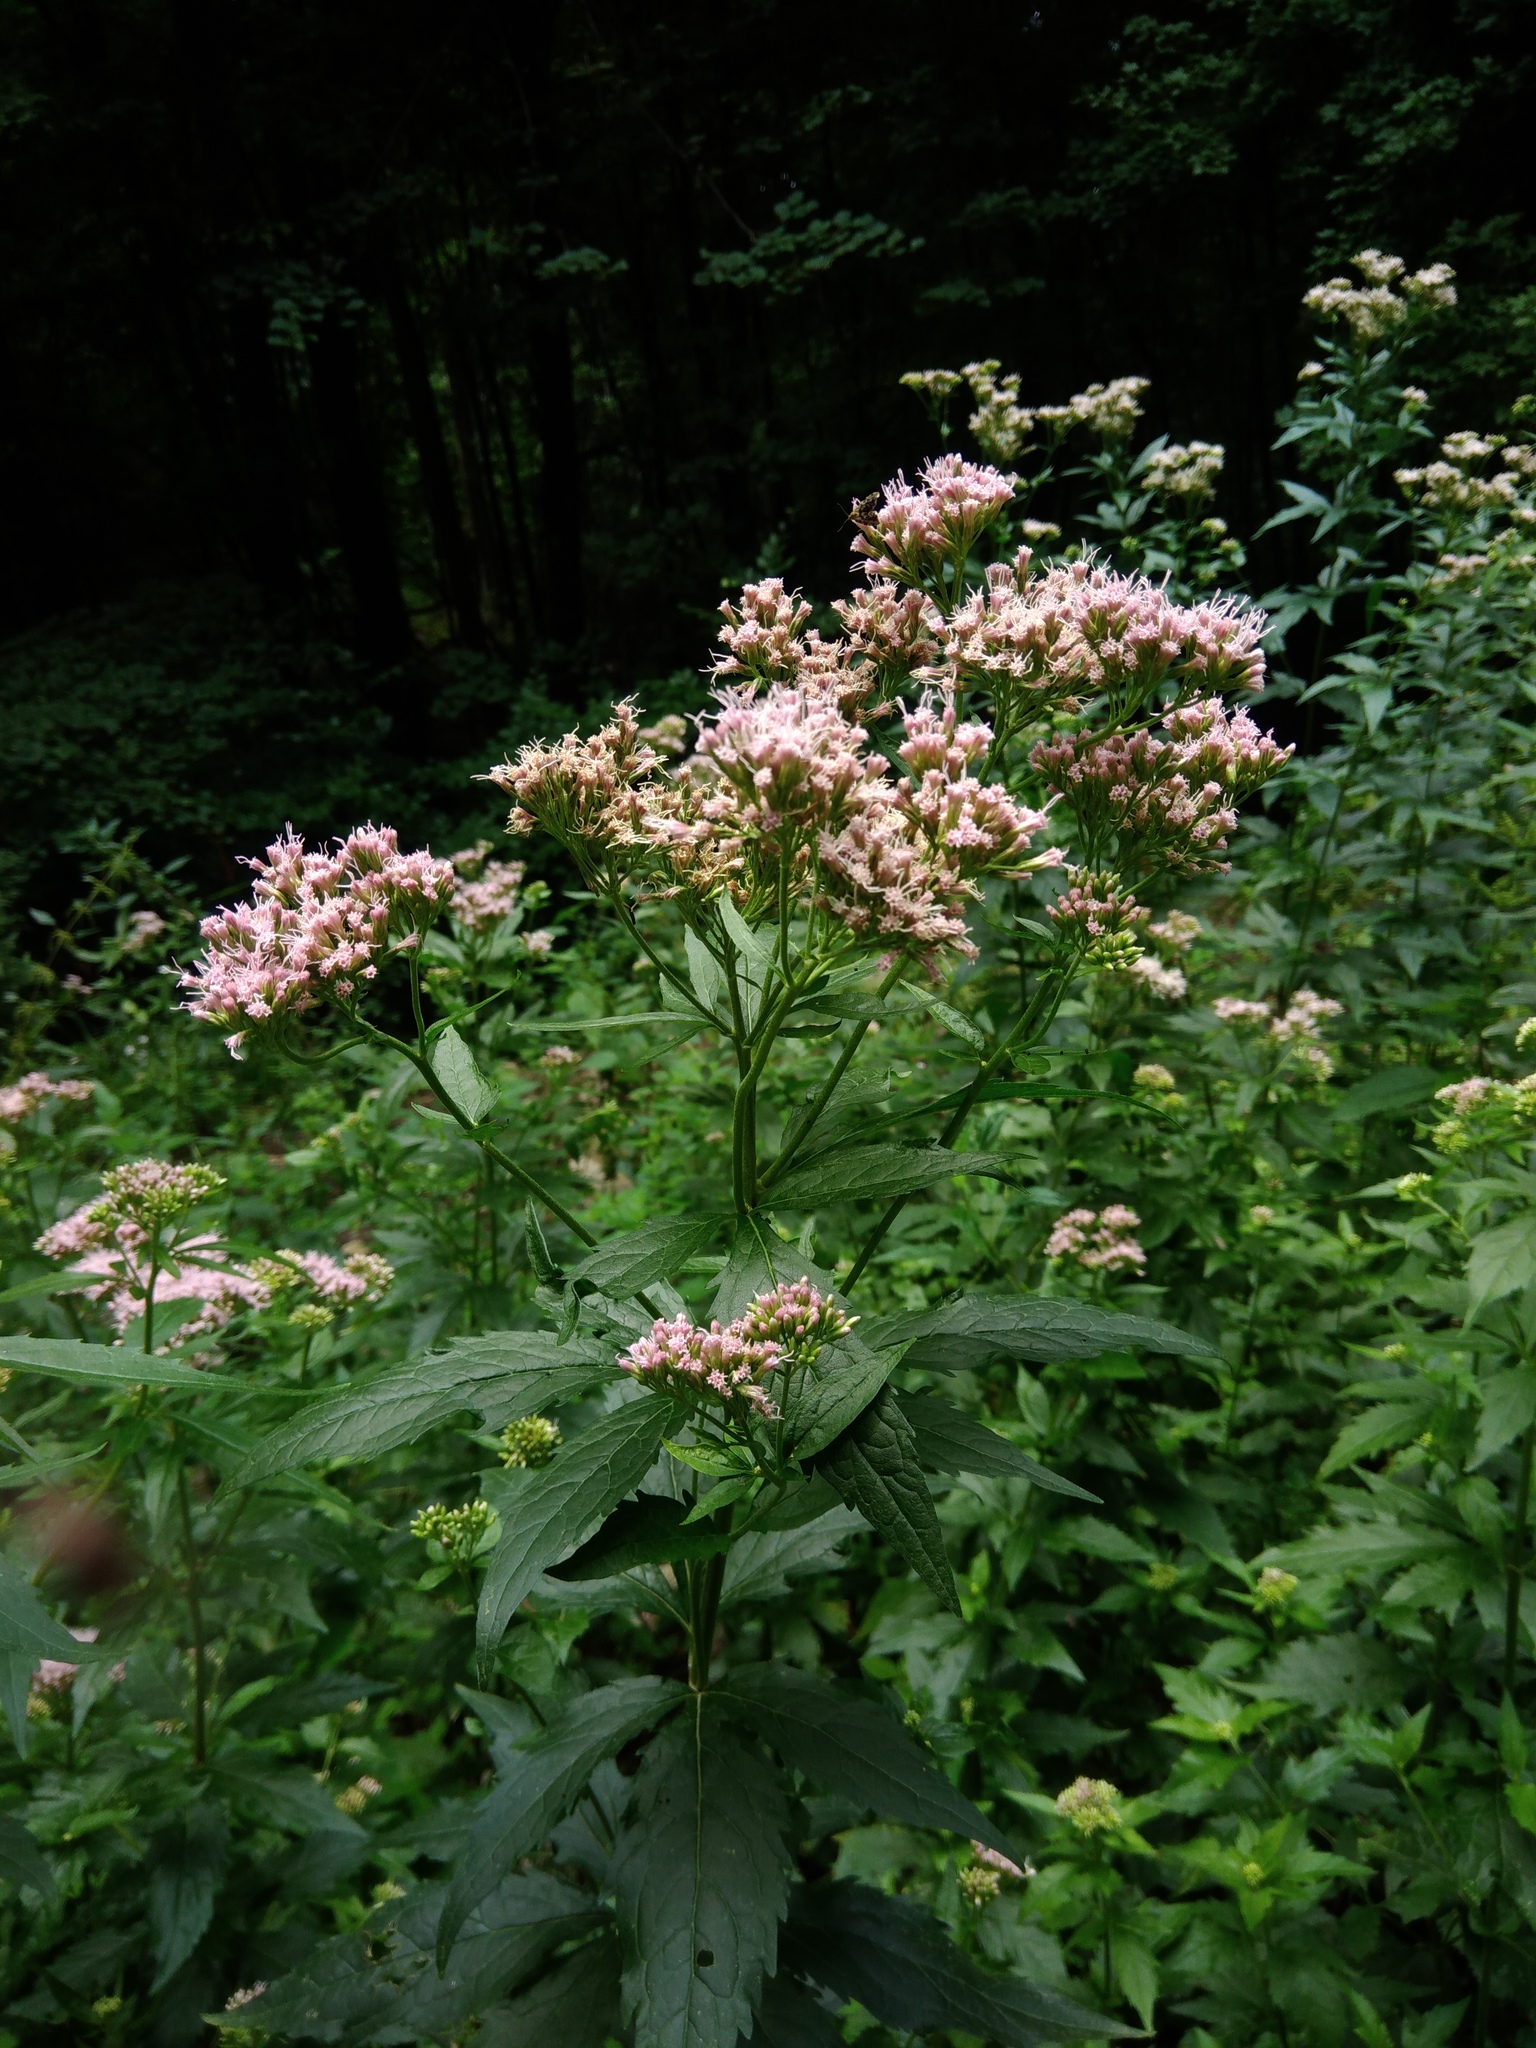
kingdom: Plantae
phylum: Tracheophyta
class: Magnoliopsida
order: Asterales
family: Asteraceae
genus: Eupatorium
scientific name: Eupatorium cannabinum
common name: Hemp-agrimony
